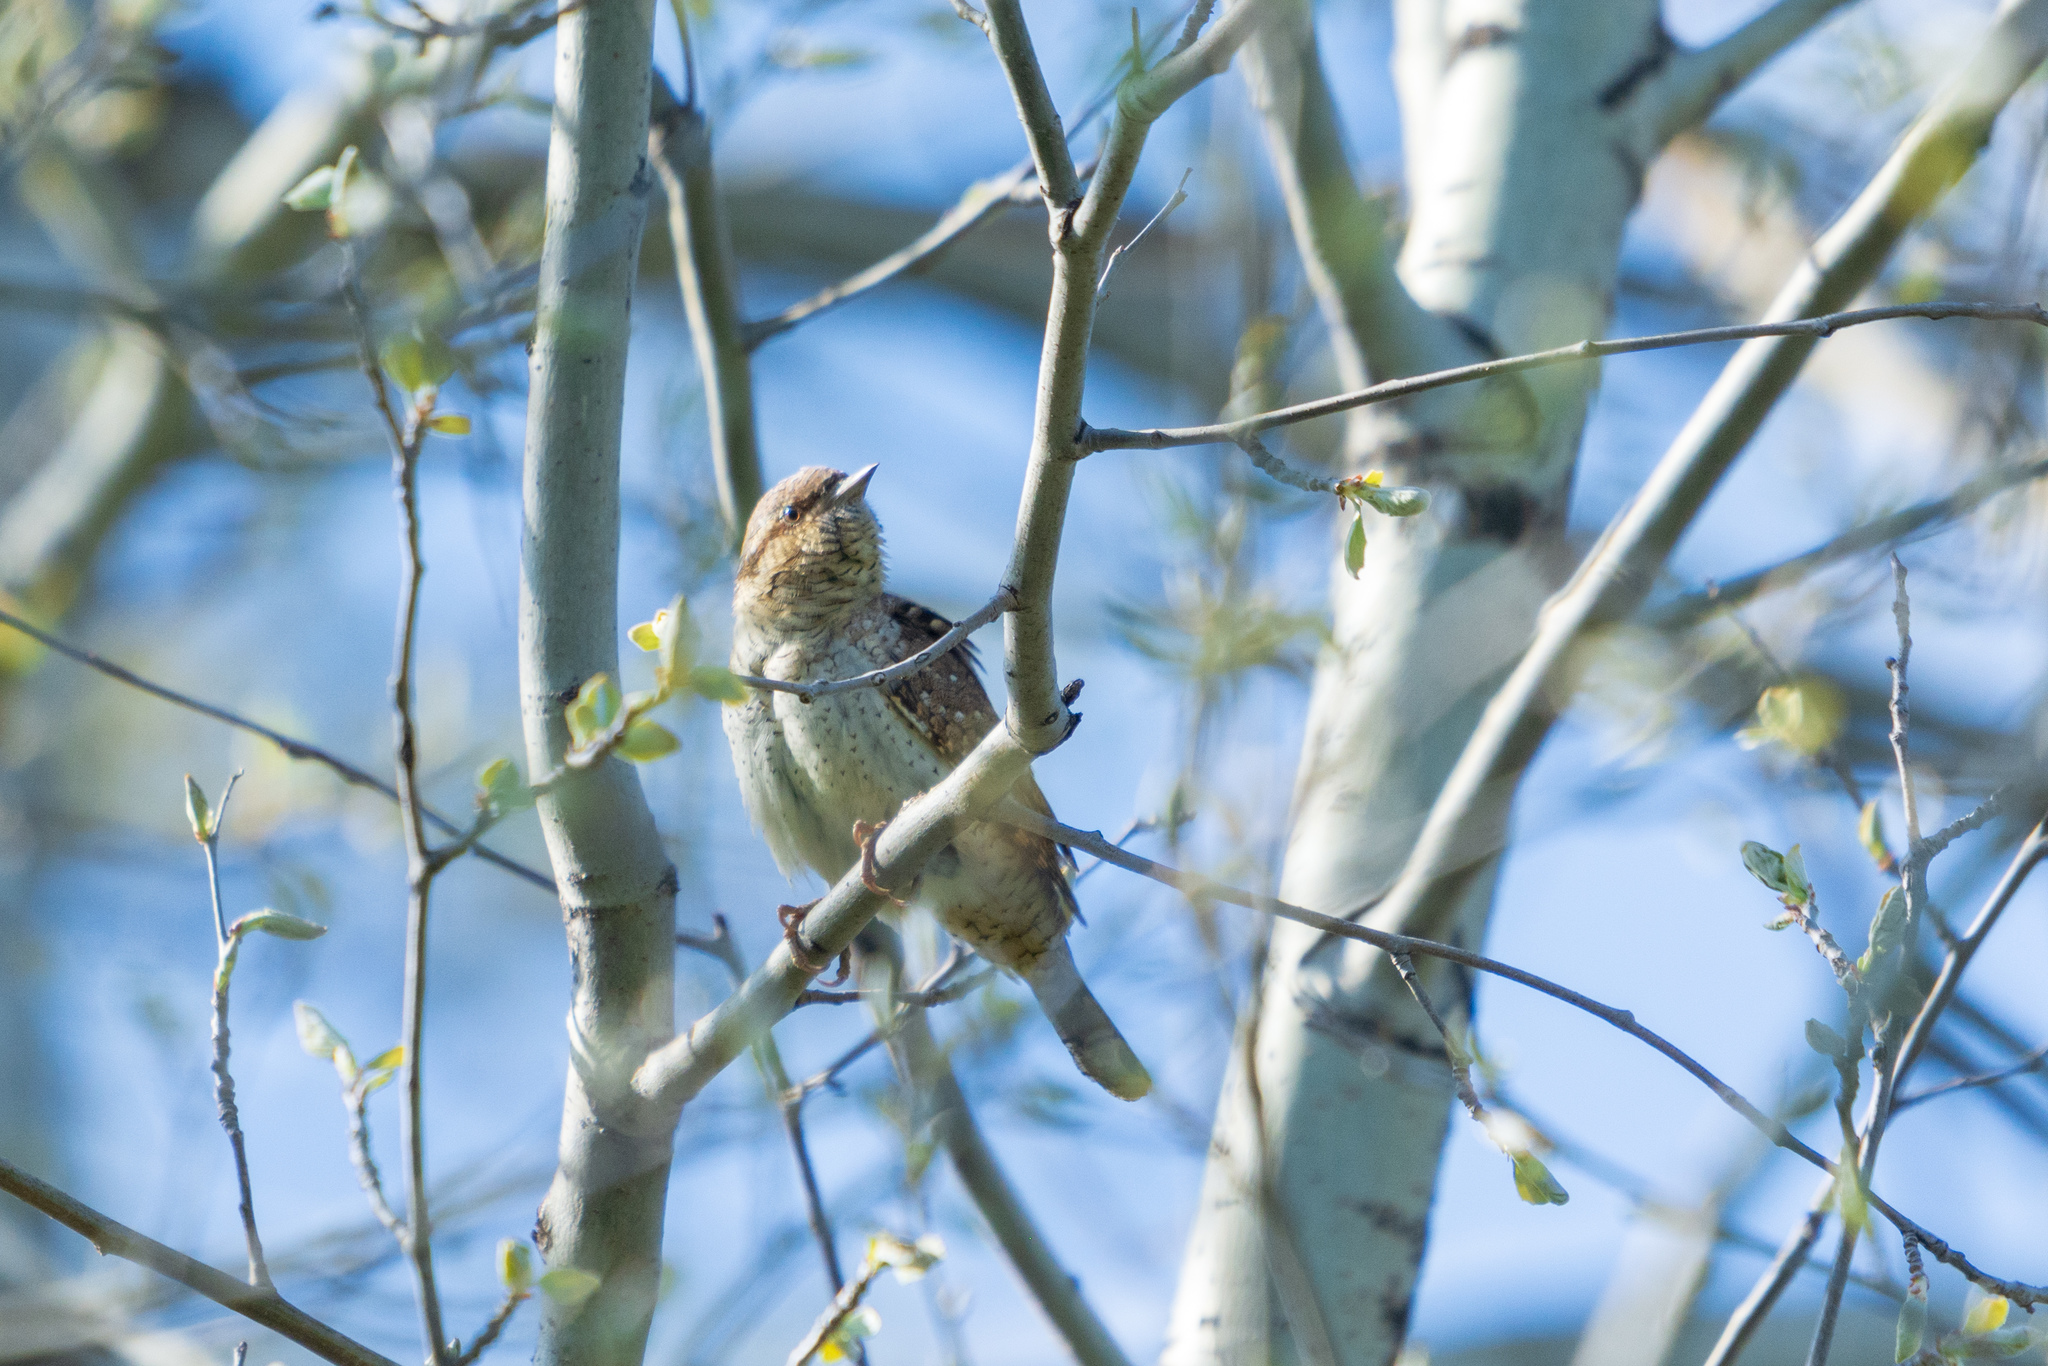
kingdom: Animalia
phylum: Chordata
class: Aves
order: Piciformes
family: Picidae
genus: Jynx
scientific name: Jynx torquilla
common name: Eurasian wryneck
